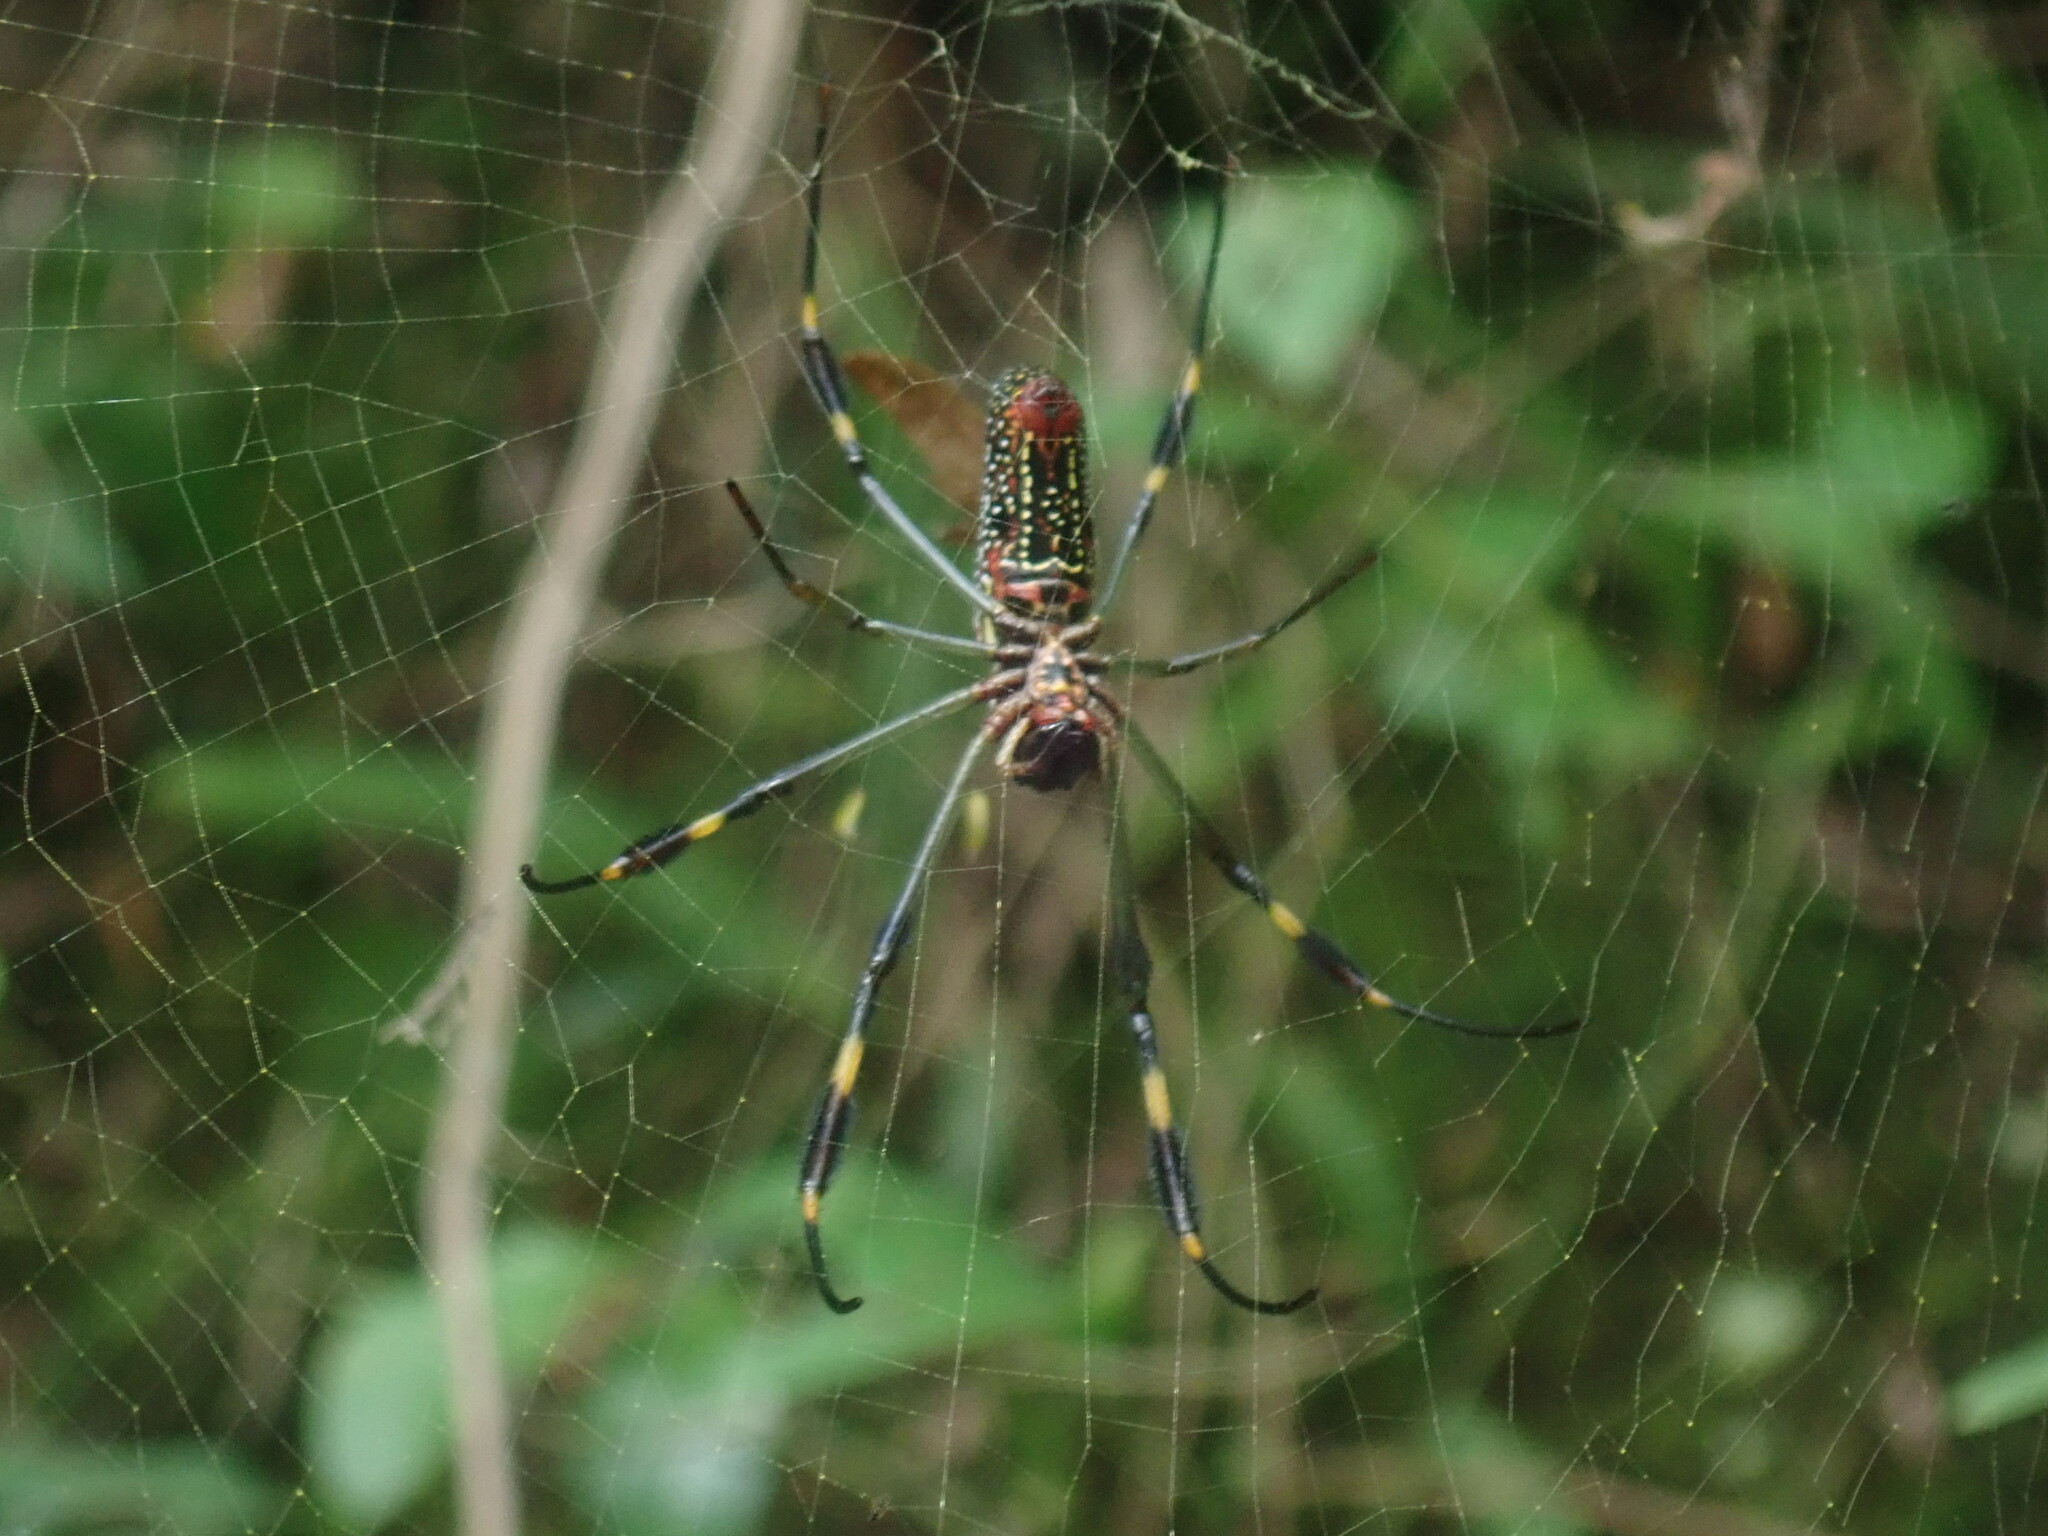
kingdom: Animalia
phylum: Arthropoda
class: Arachnida
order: Araneae
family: Araneidae
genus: Trichonephila
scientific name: Trichonephila clavipes
